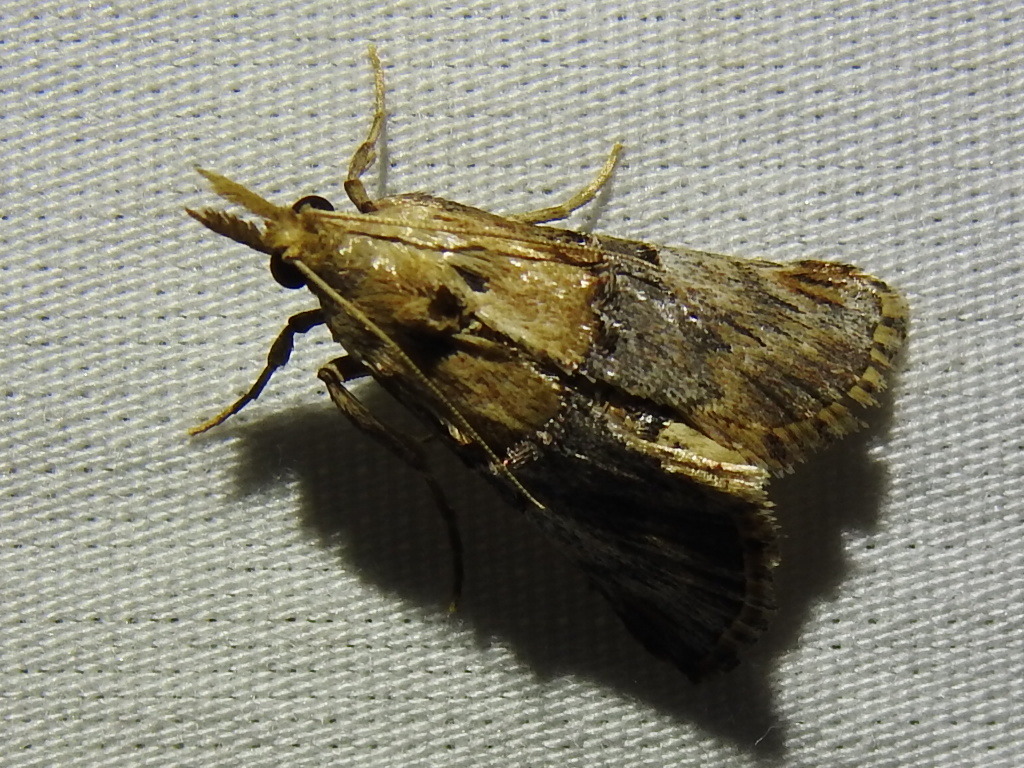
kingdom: Animalia
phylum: Arthropoda
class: Insecta
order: Lepidoptera
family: Pyralidae
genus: Cacozelia
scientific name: Cacozelia elegans
